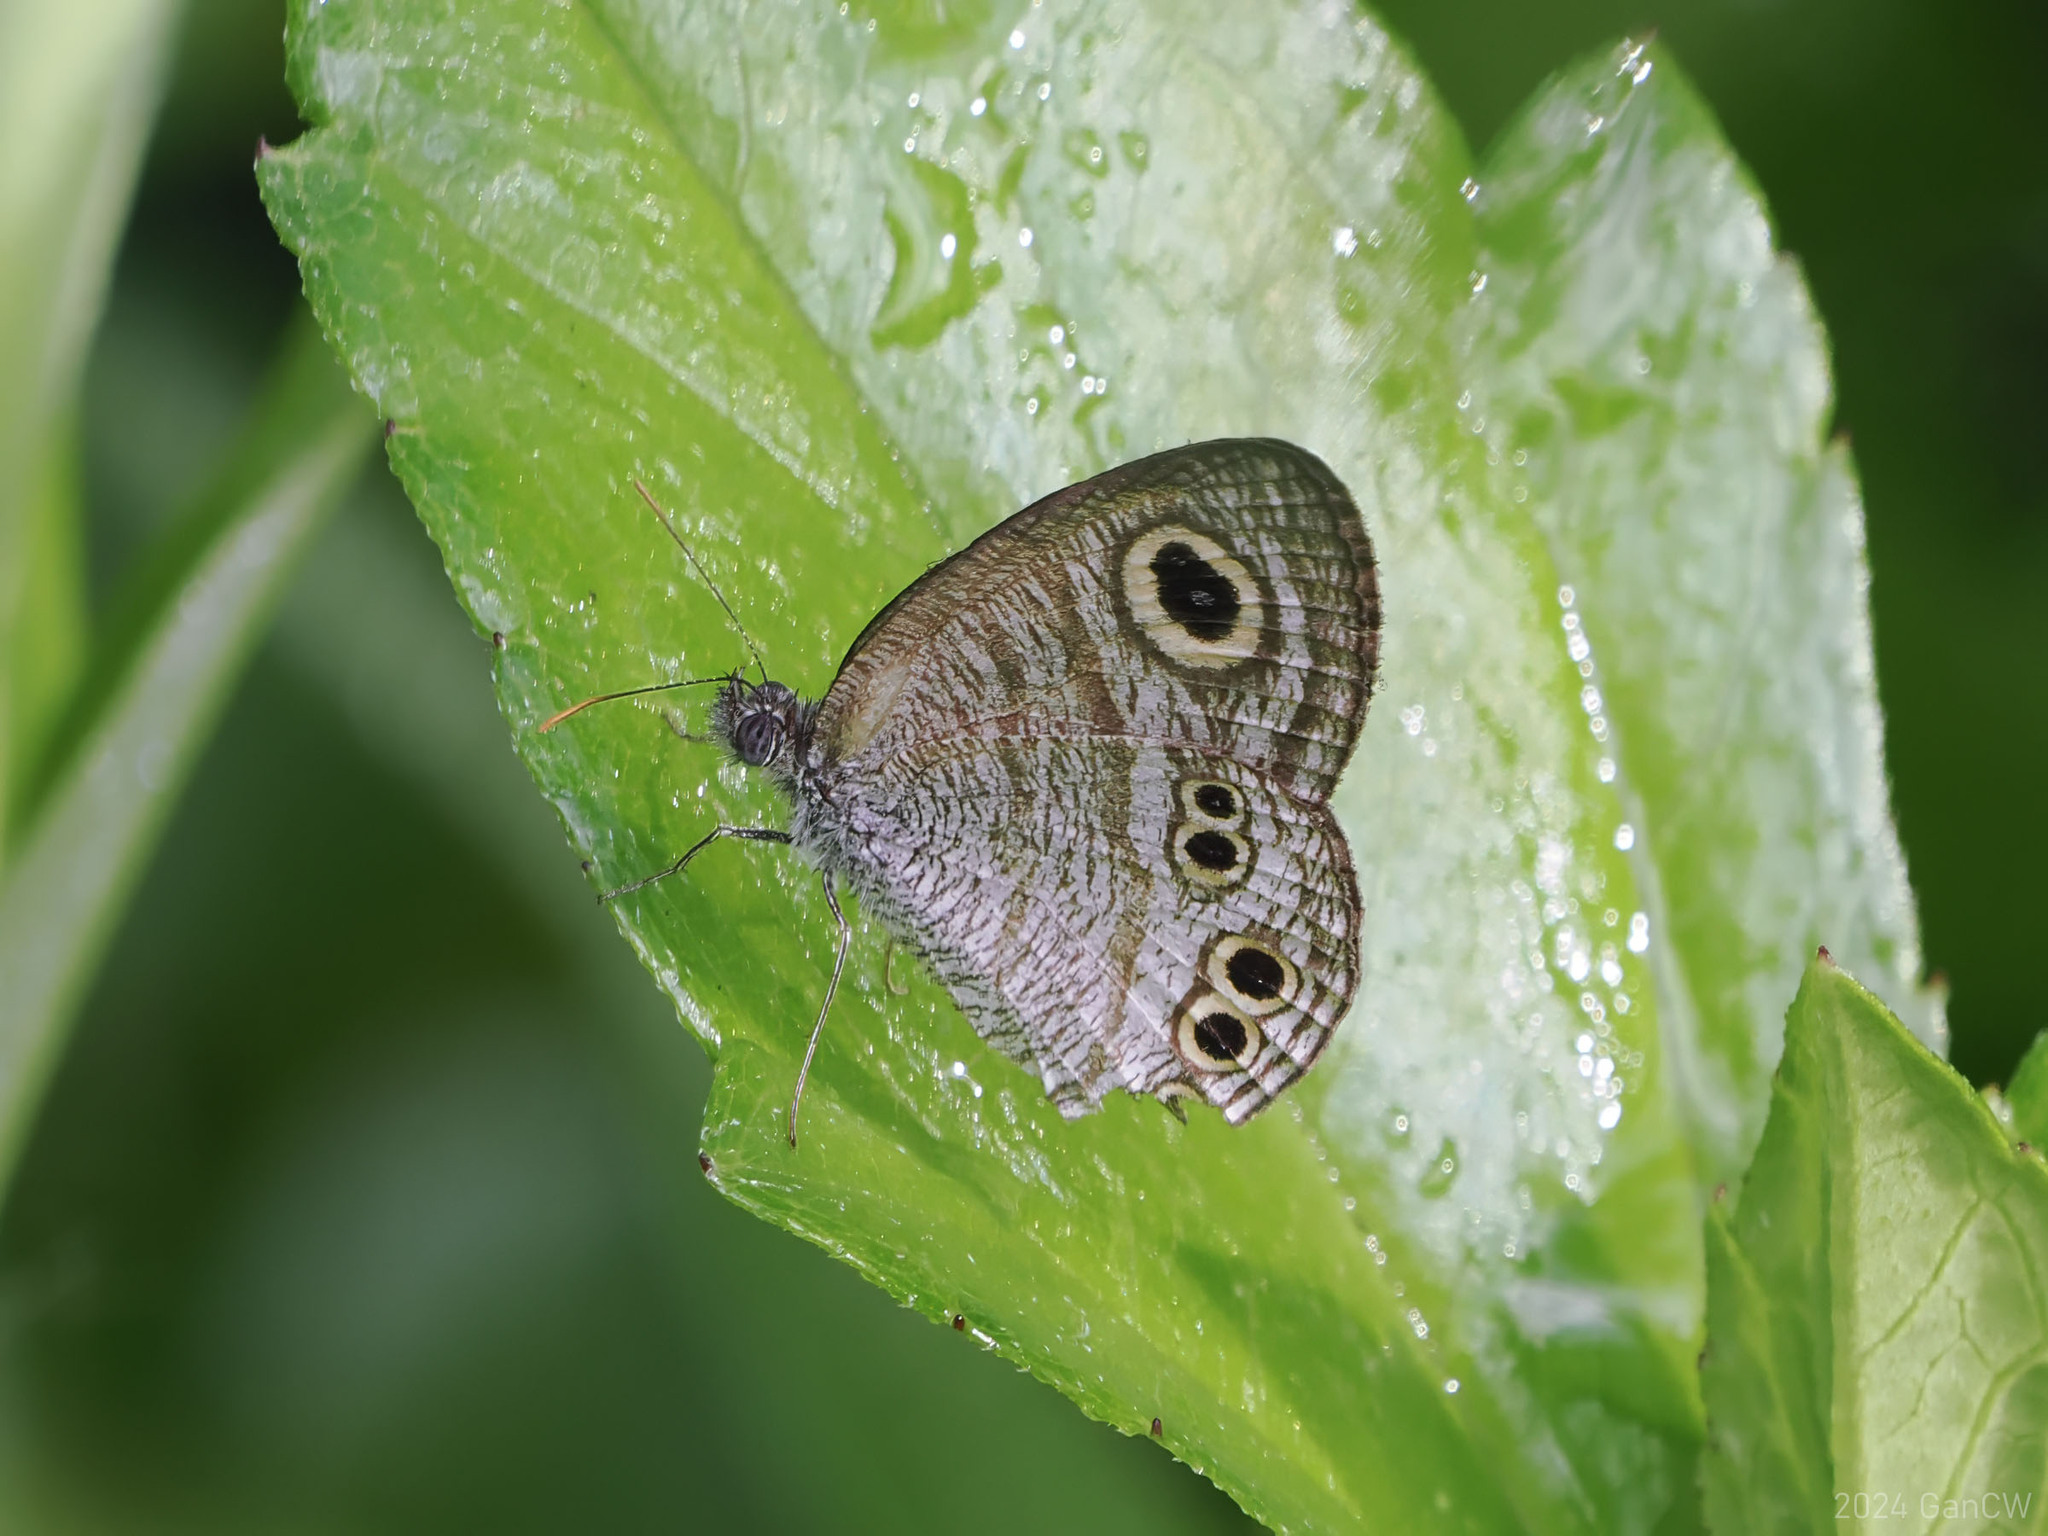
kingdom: Animalia
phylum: Arthropoda
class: Insecta
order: Lepidoptera
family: Nymphalidae
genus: Ypthima
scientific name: Ypthima stellera
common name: Philippine five-ring
